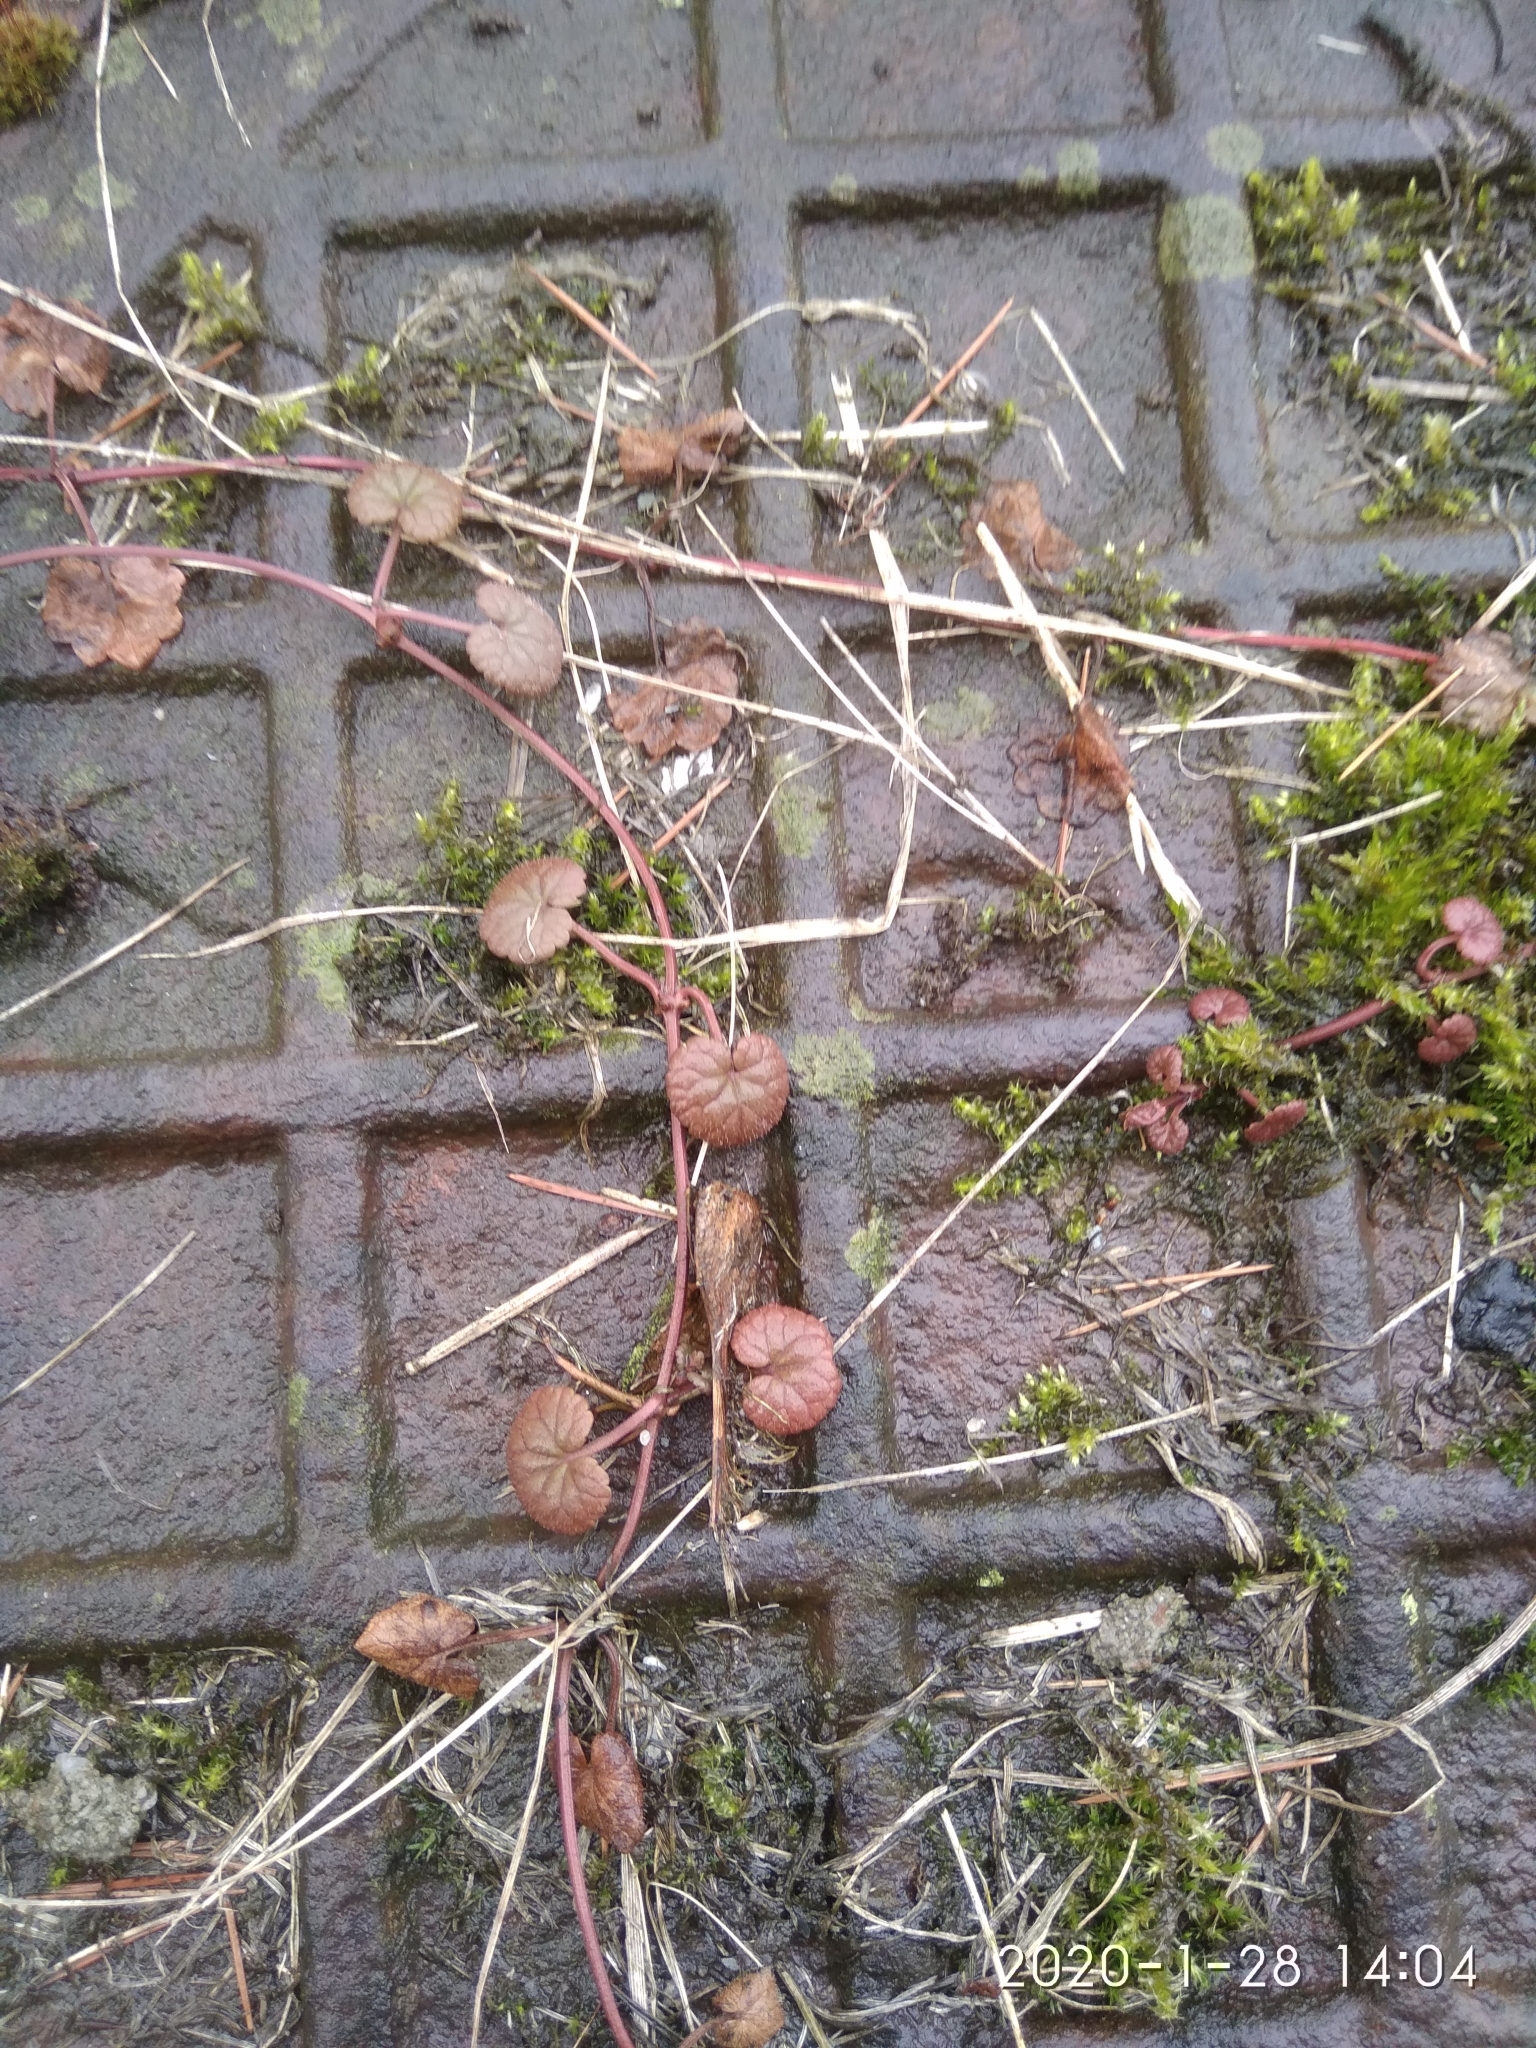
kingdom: Plantae
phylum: Tracheophyta
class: Magnoliopsida
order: Lamiales
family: Lamiaceae
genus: Glechoma
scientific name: Glechoma hederacea
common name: Ground ivy
